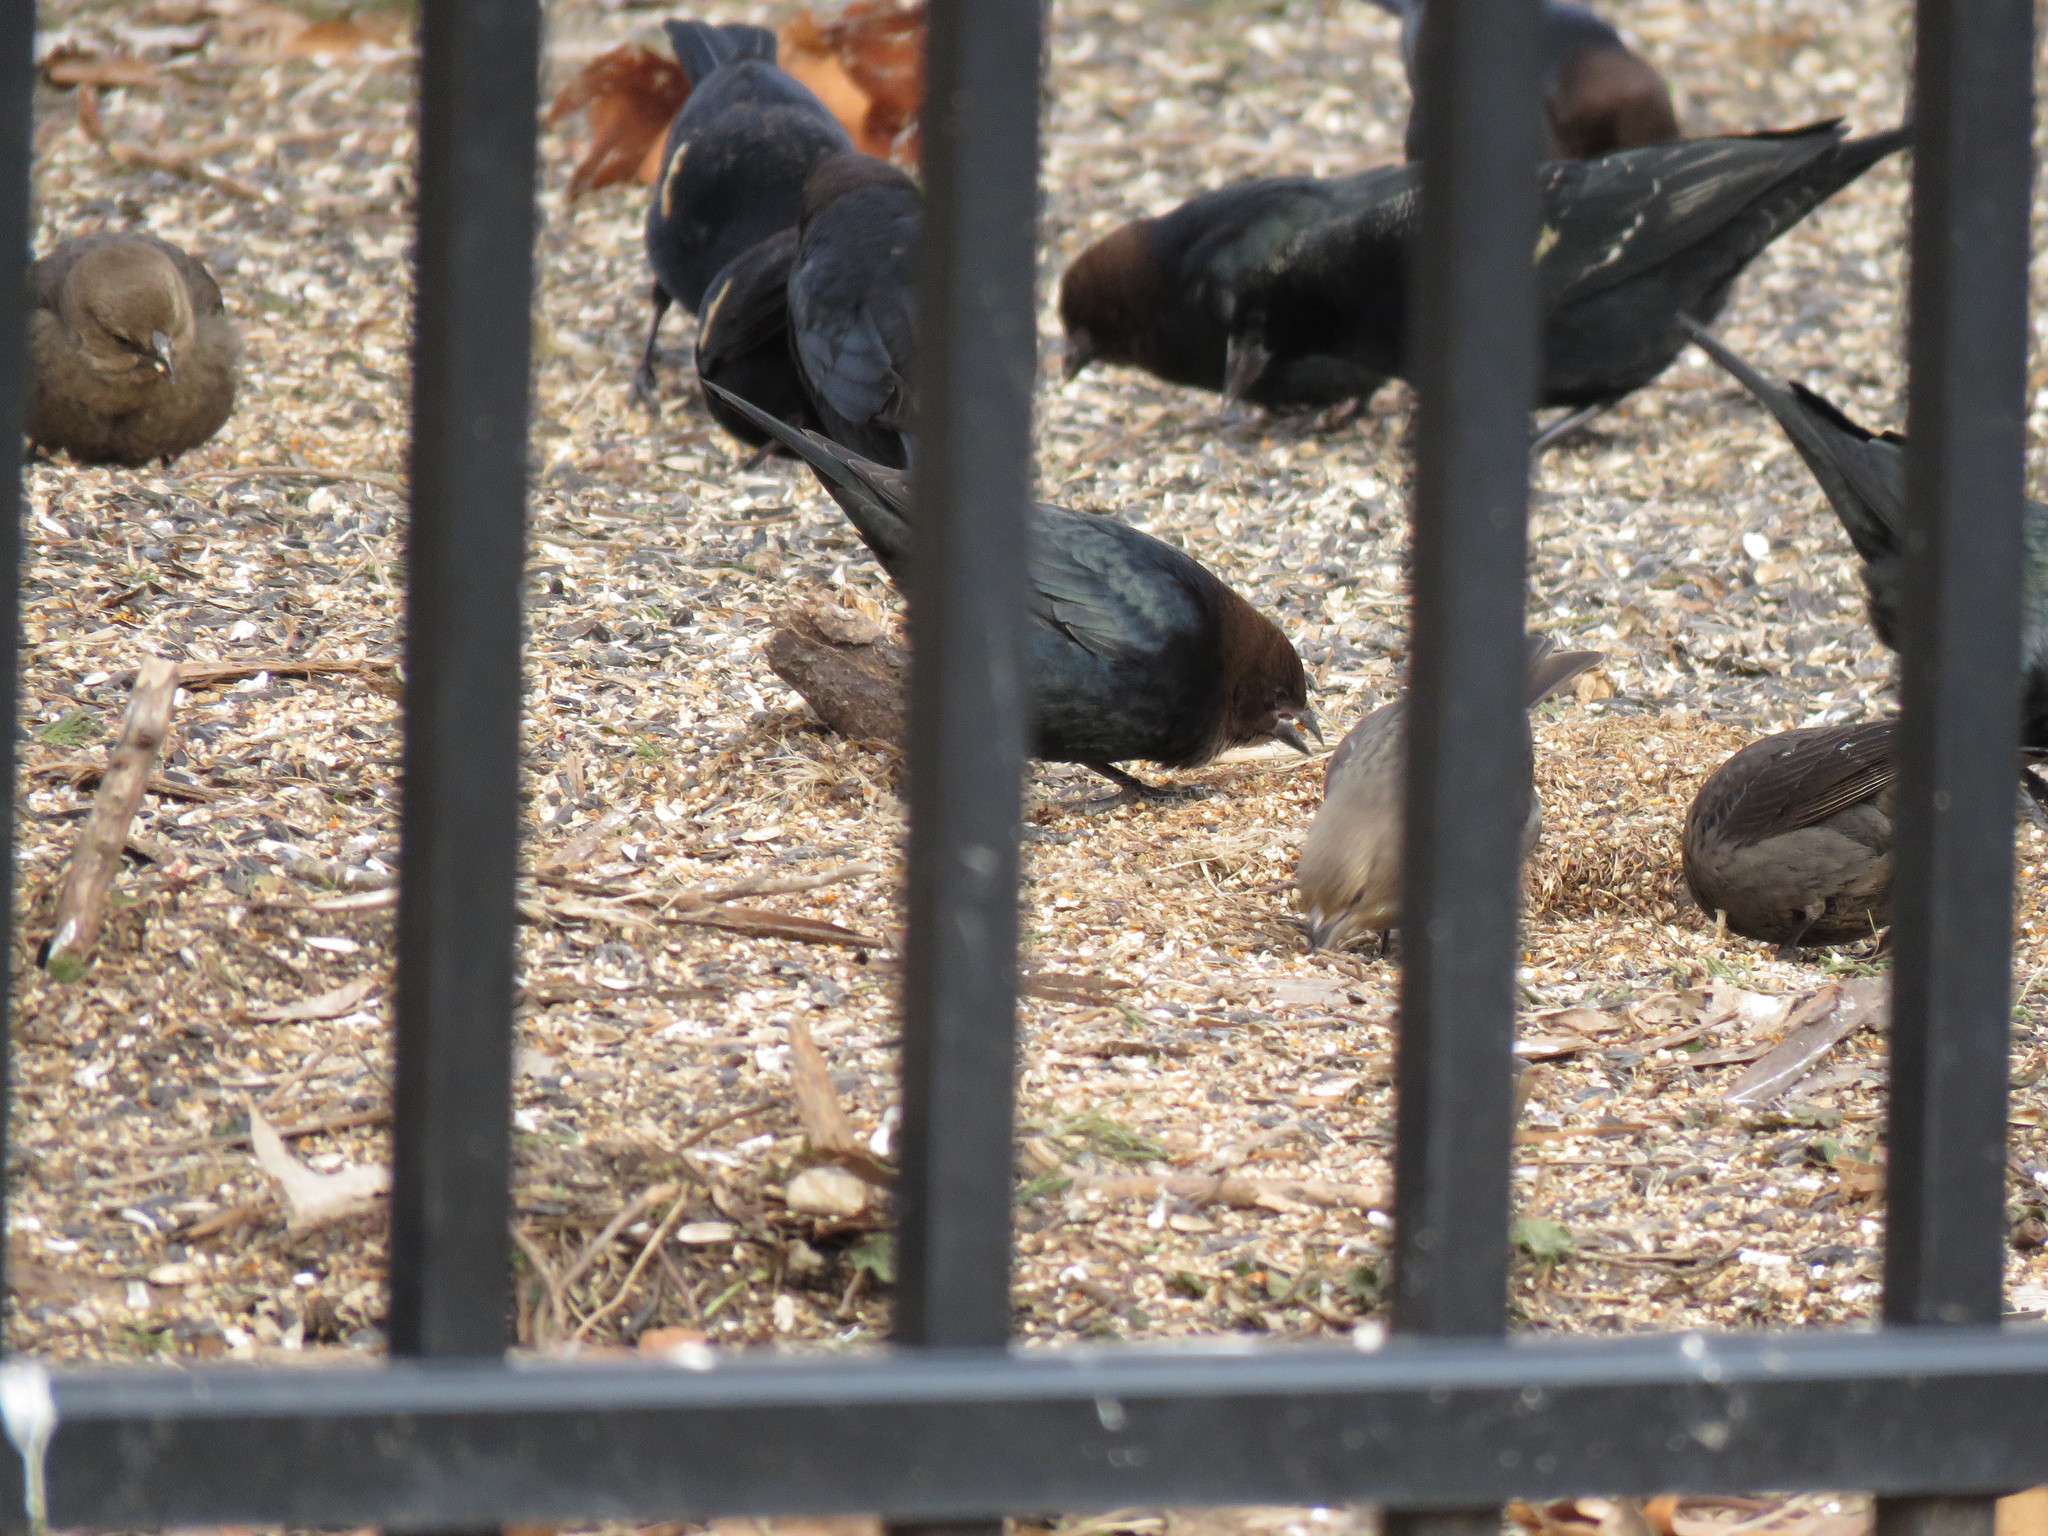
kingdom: Animalia
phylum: Chordata
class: Aves
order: Passeriformes
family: Icteridae
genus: Molothrus
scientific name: Molothrus ater
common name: Brown-headed cowbird
